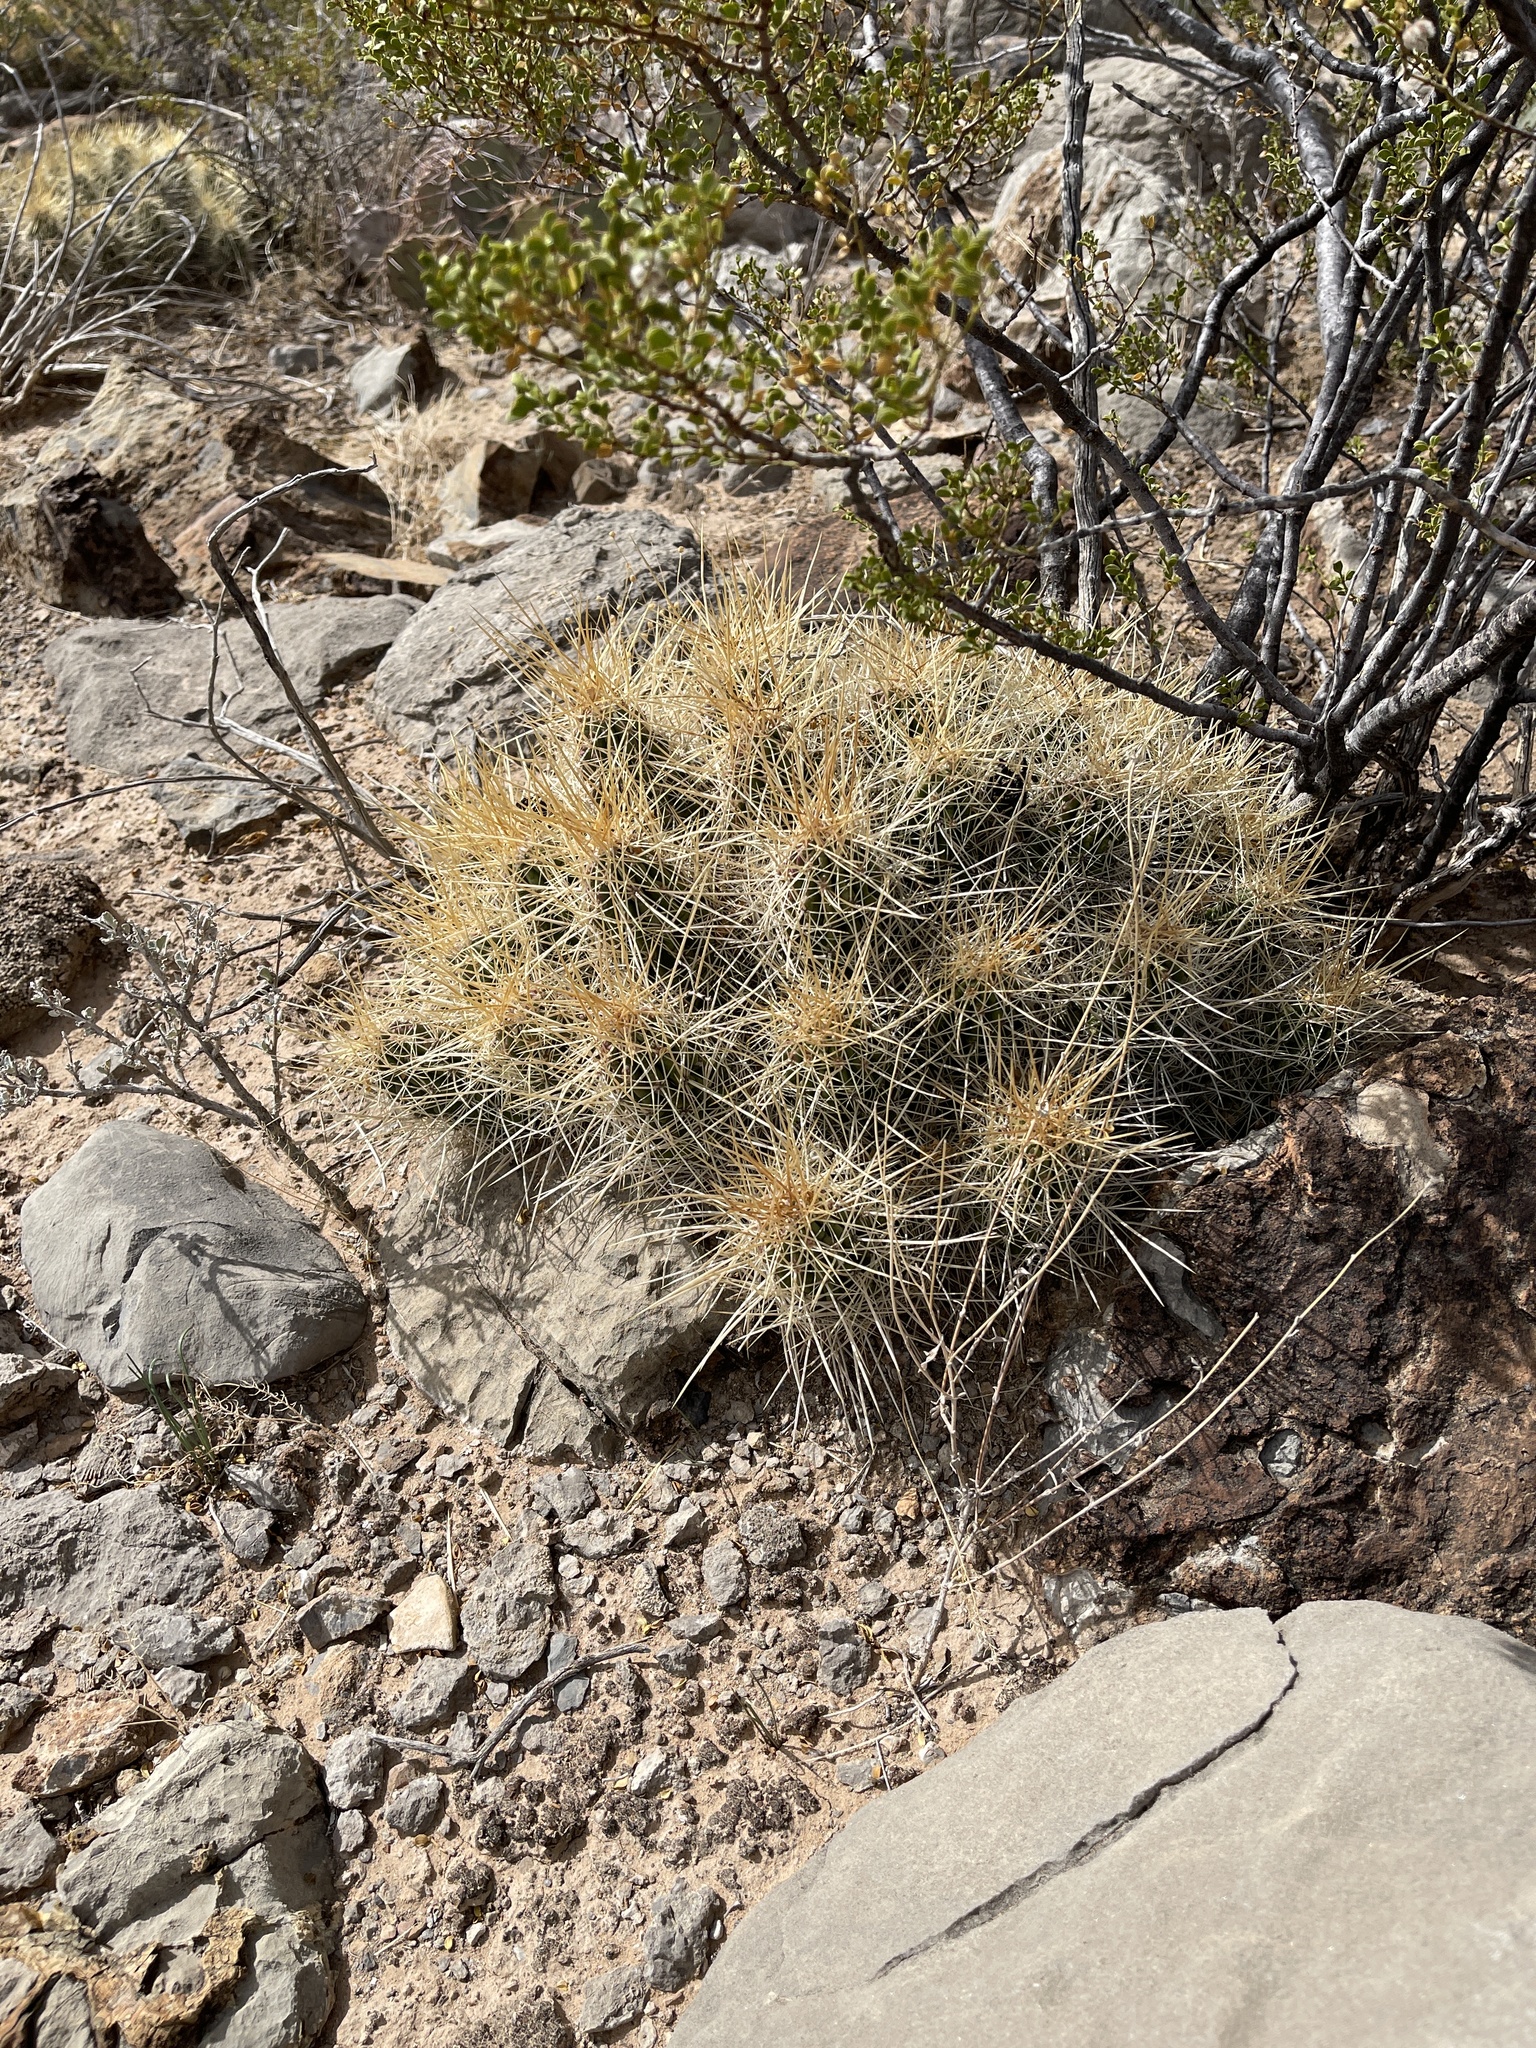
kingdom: Plantae
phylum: Tracheophyta
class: Magnoliopsida
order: Caryophyllales
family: Cactaceae
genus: Echinocereus
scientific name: Echinocereus stramineus
